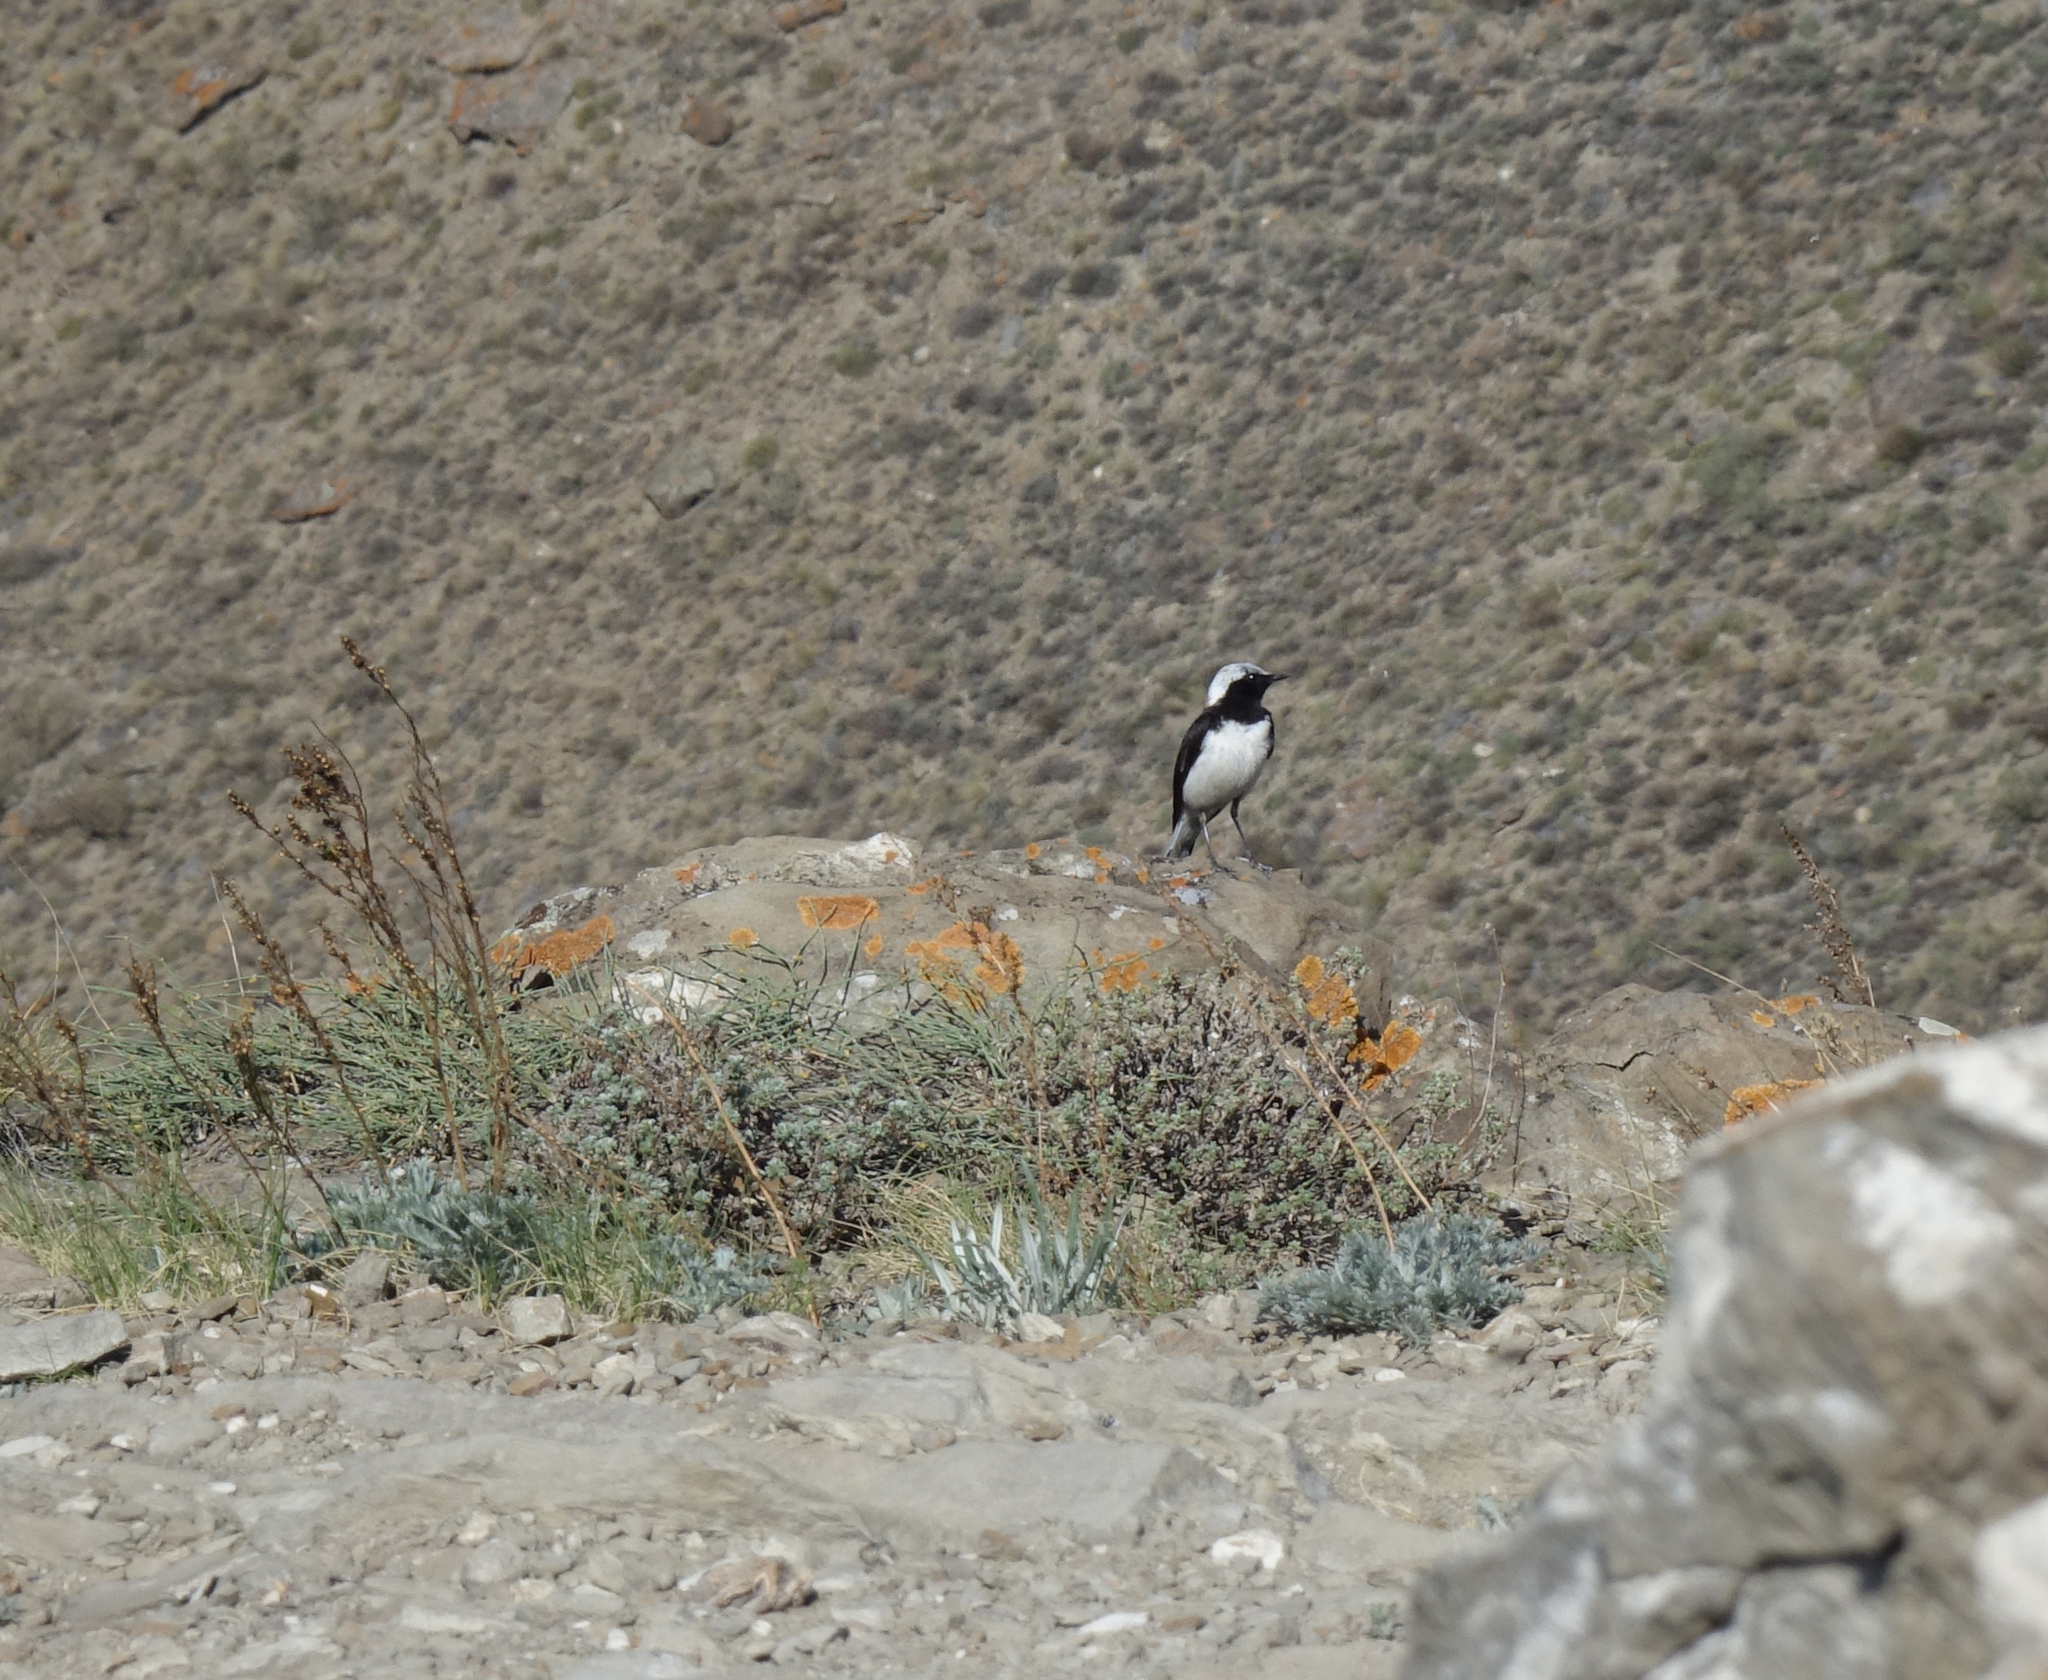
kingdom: Animalia
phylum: Chordata
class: Aves
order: Passeriformes
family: Muscicapidae
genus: Oenanthe
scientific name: Oenanthe pleschanka
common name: Pied wheatear
